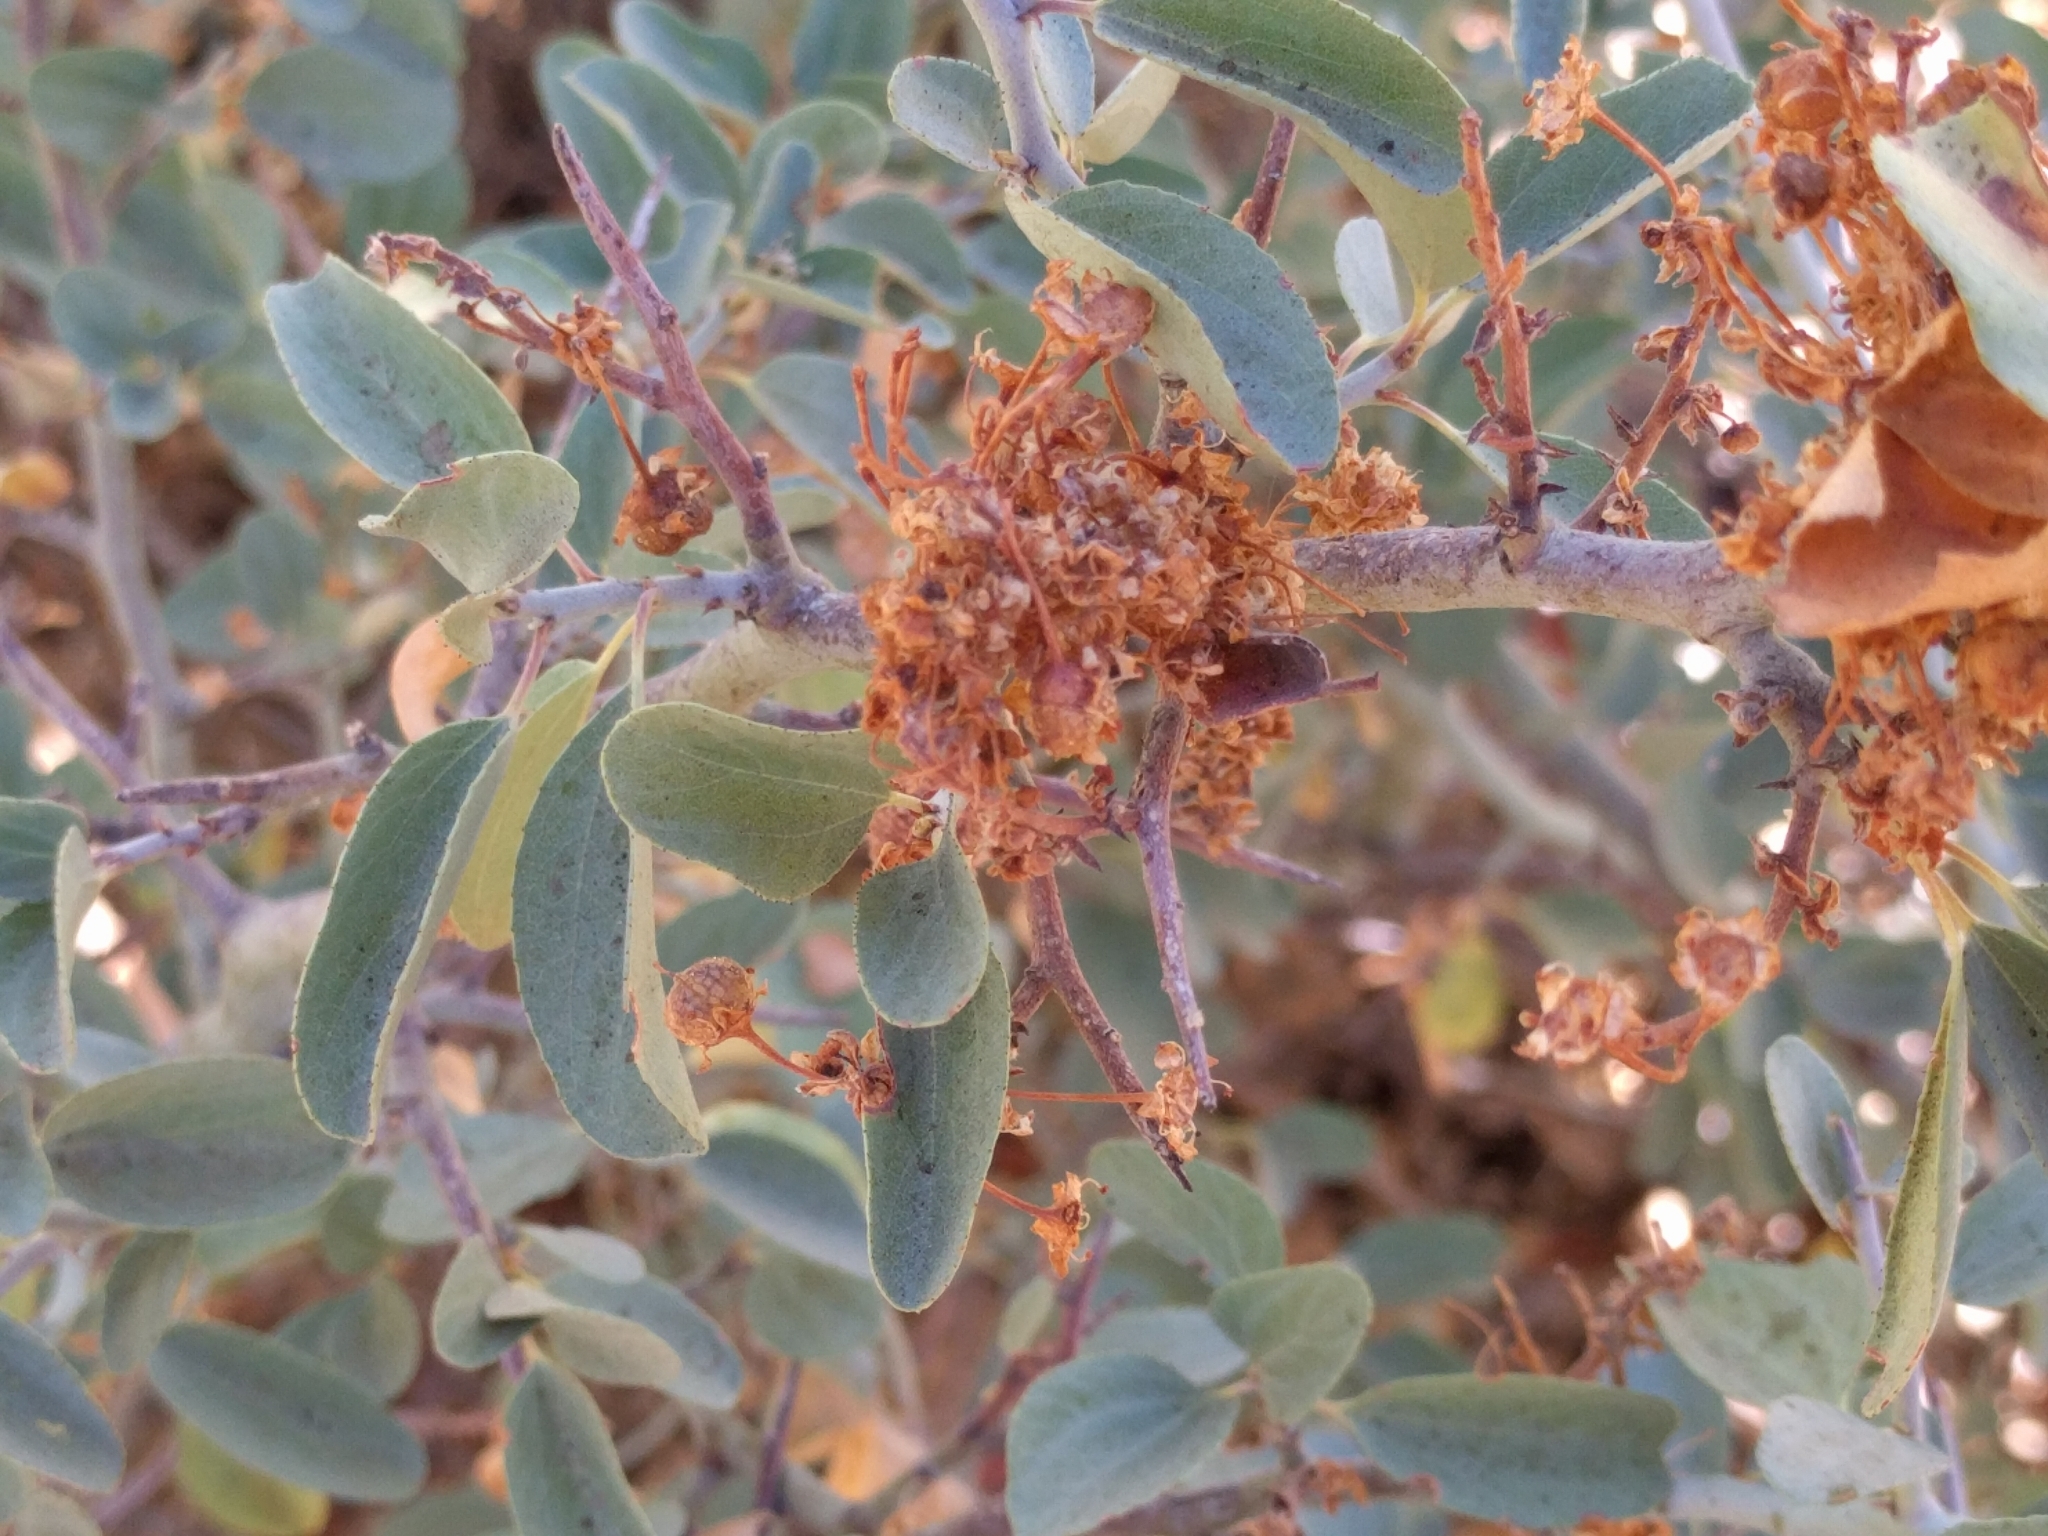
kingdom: Plantae
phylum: Tracheophyta
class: Magnoliopsida
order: Rosales
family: Rhamnaceae
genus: Ceanothus
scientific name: Ceanothus cordulatus
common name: Mountain whitethorn
